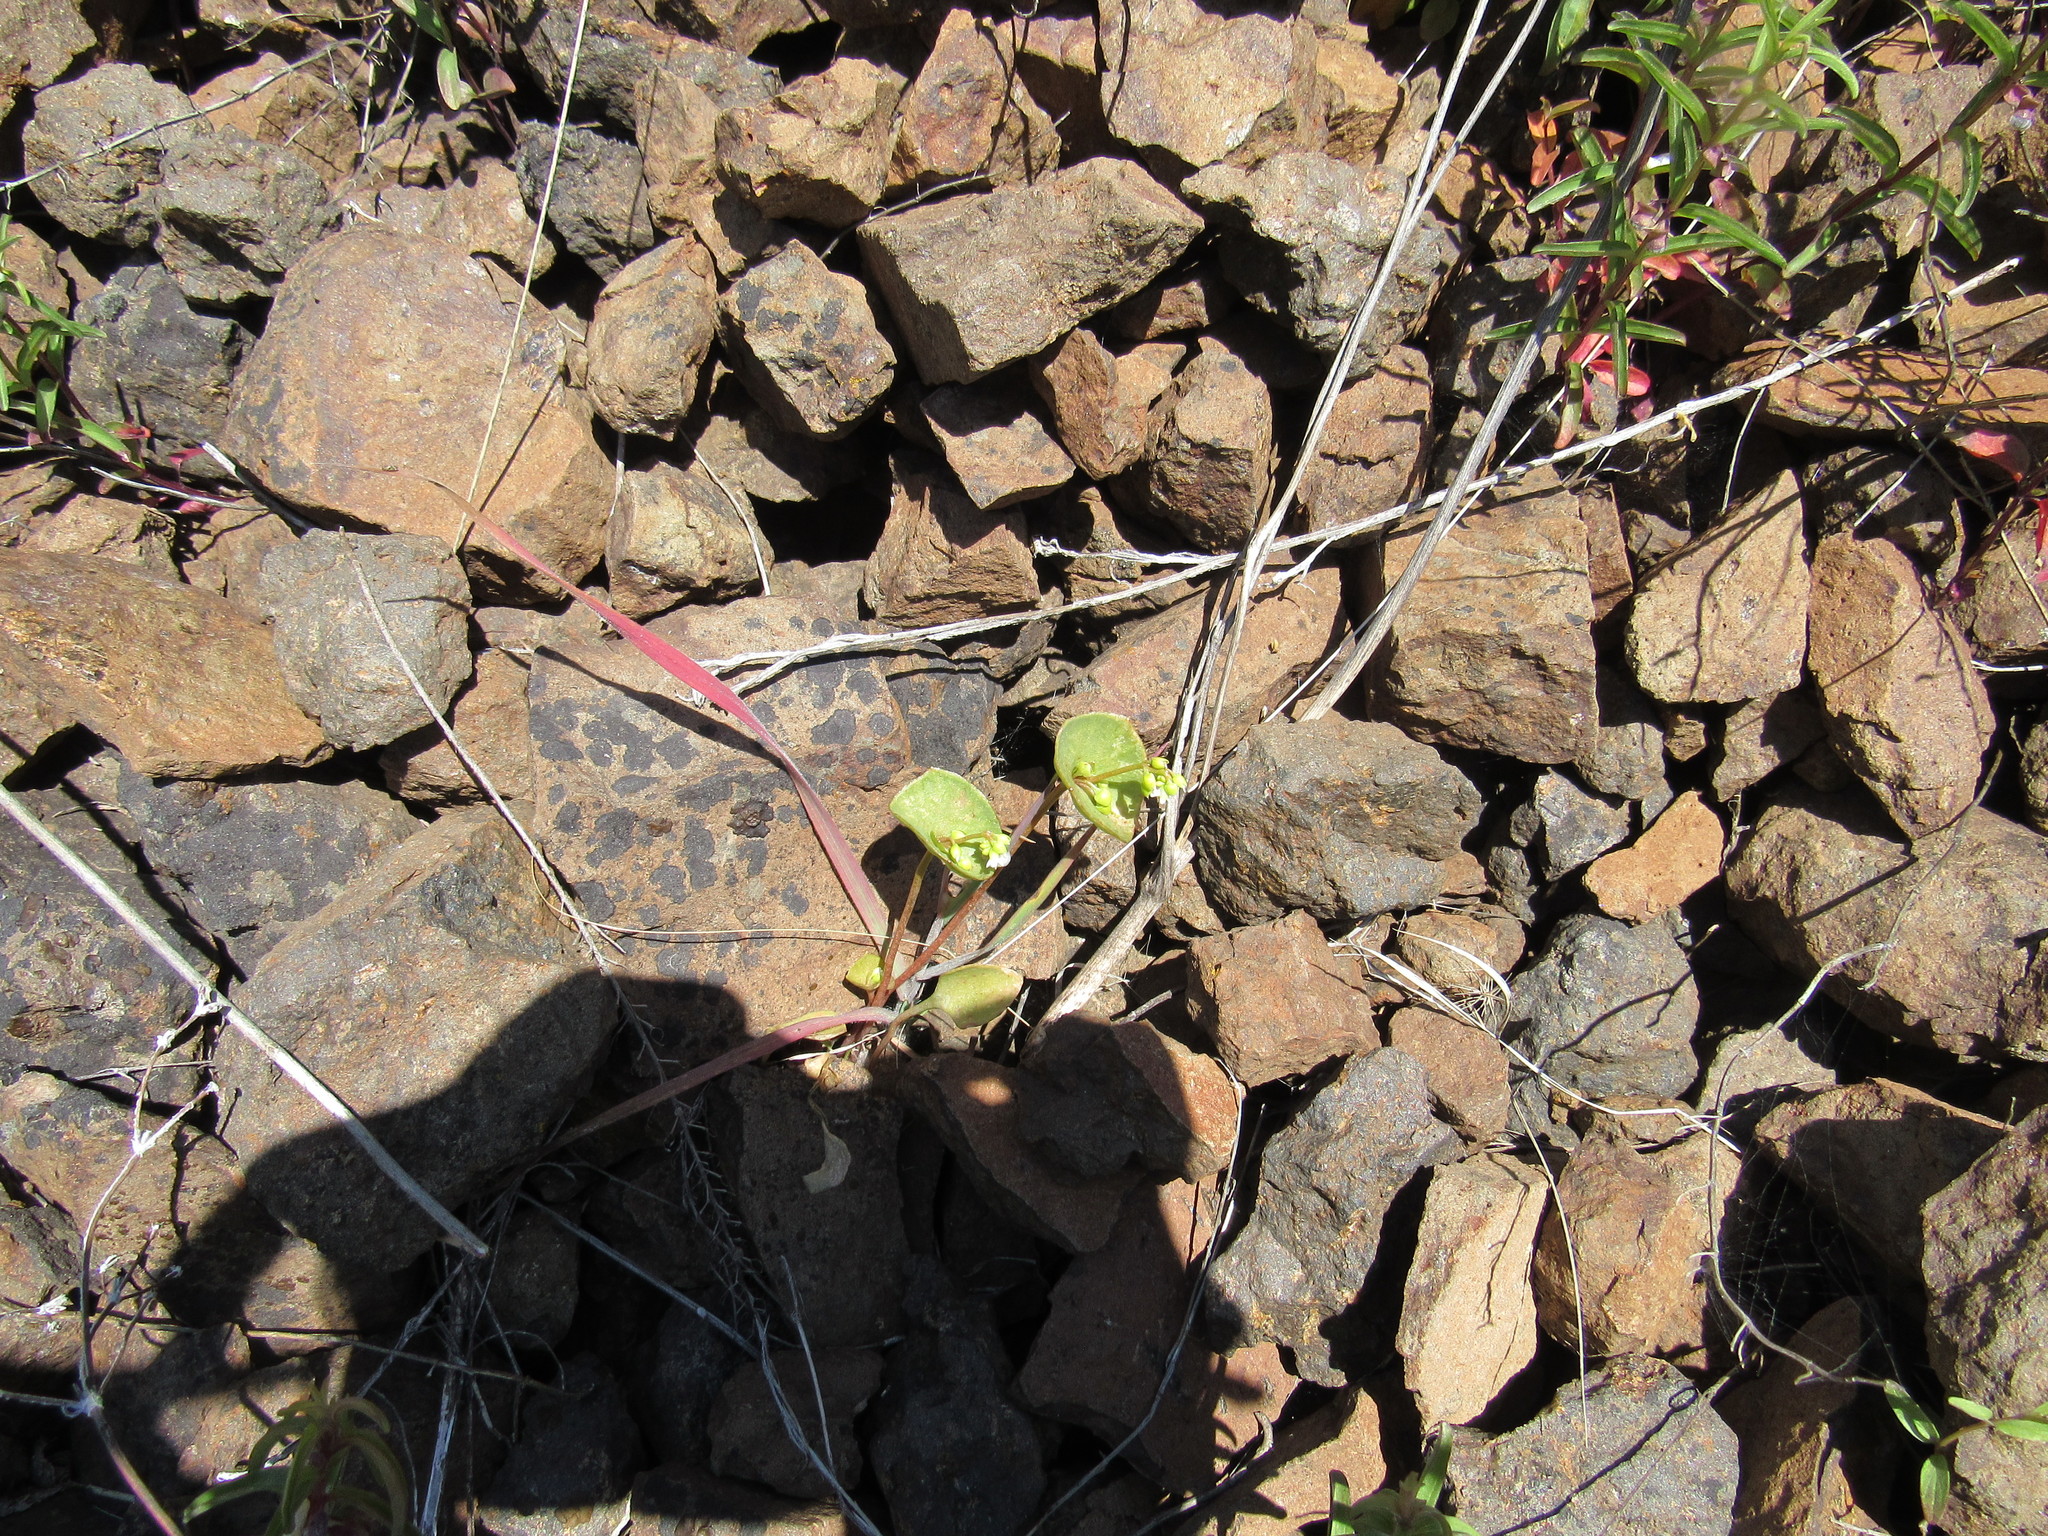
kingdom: Plantae
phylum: Tracheophyta
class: Magnoliopsida
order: Caryophyllales
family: Montiaceae
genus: Claytonia
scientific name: Claytonia perfoliata
